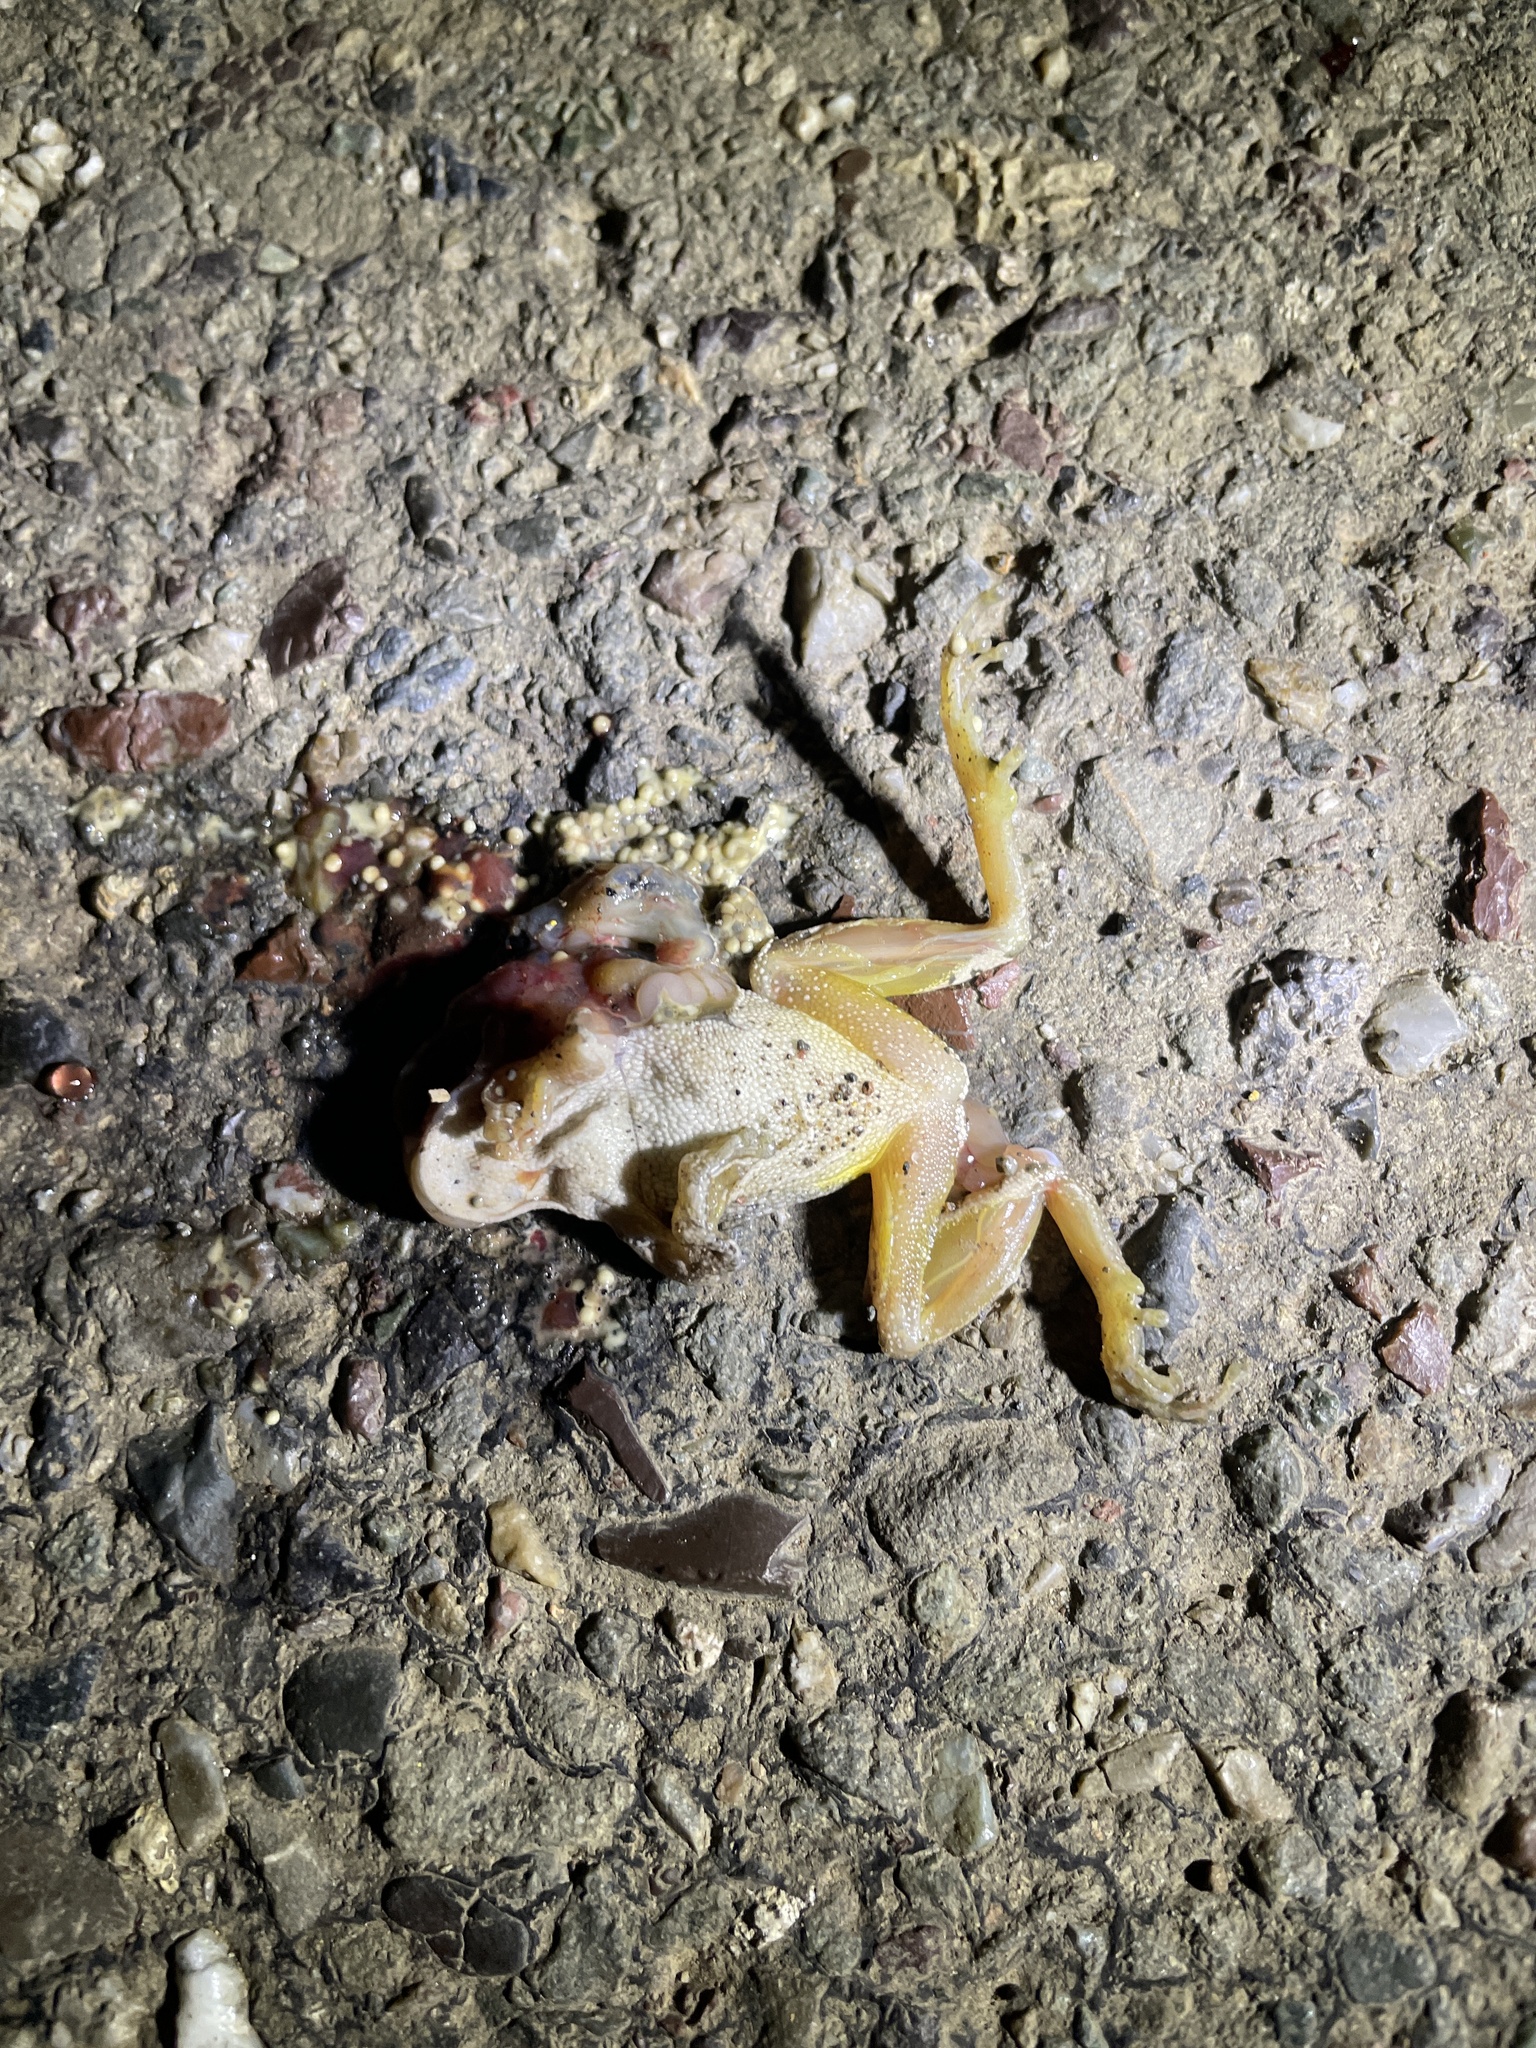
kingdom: Animalia
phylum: Chordata
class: Amphibia
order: Anura
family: Hylidae
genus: Pseudacris
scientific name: Pseudacris regilla
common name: Pacific chorus frog
